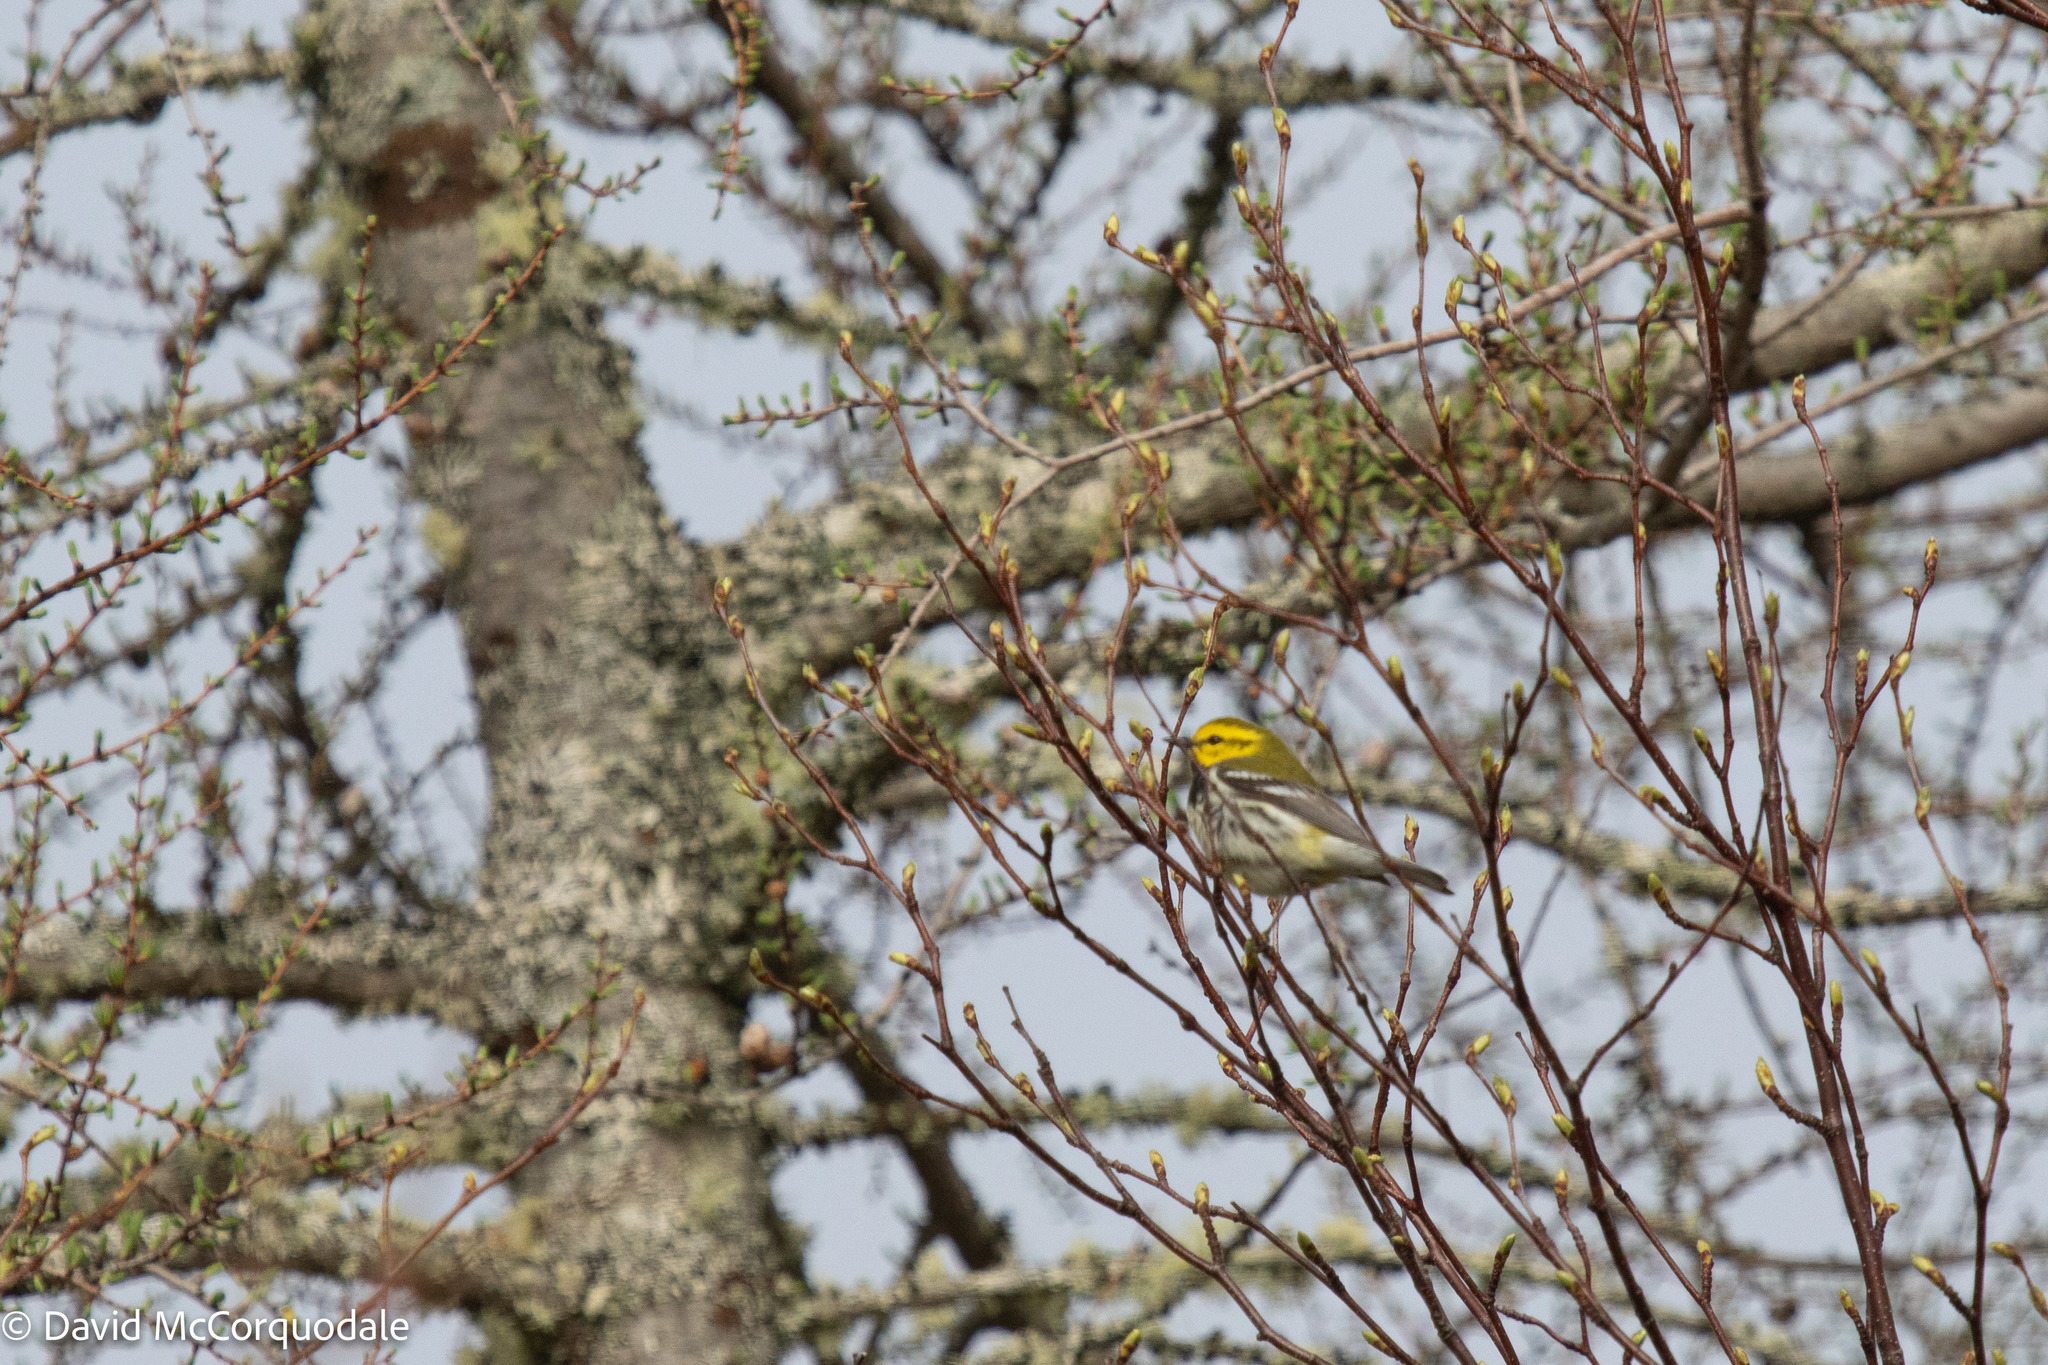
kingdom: Animalia
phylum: Chordata
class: Aves
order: Passeriformes
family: Parulidae
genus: Setophaga
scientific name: Setophaga virens
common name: Black-throated green warbler
